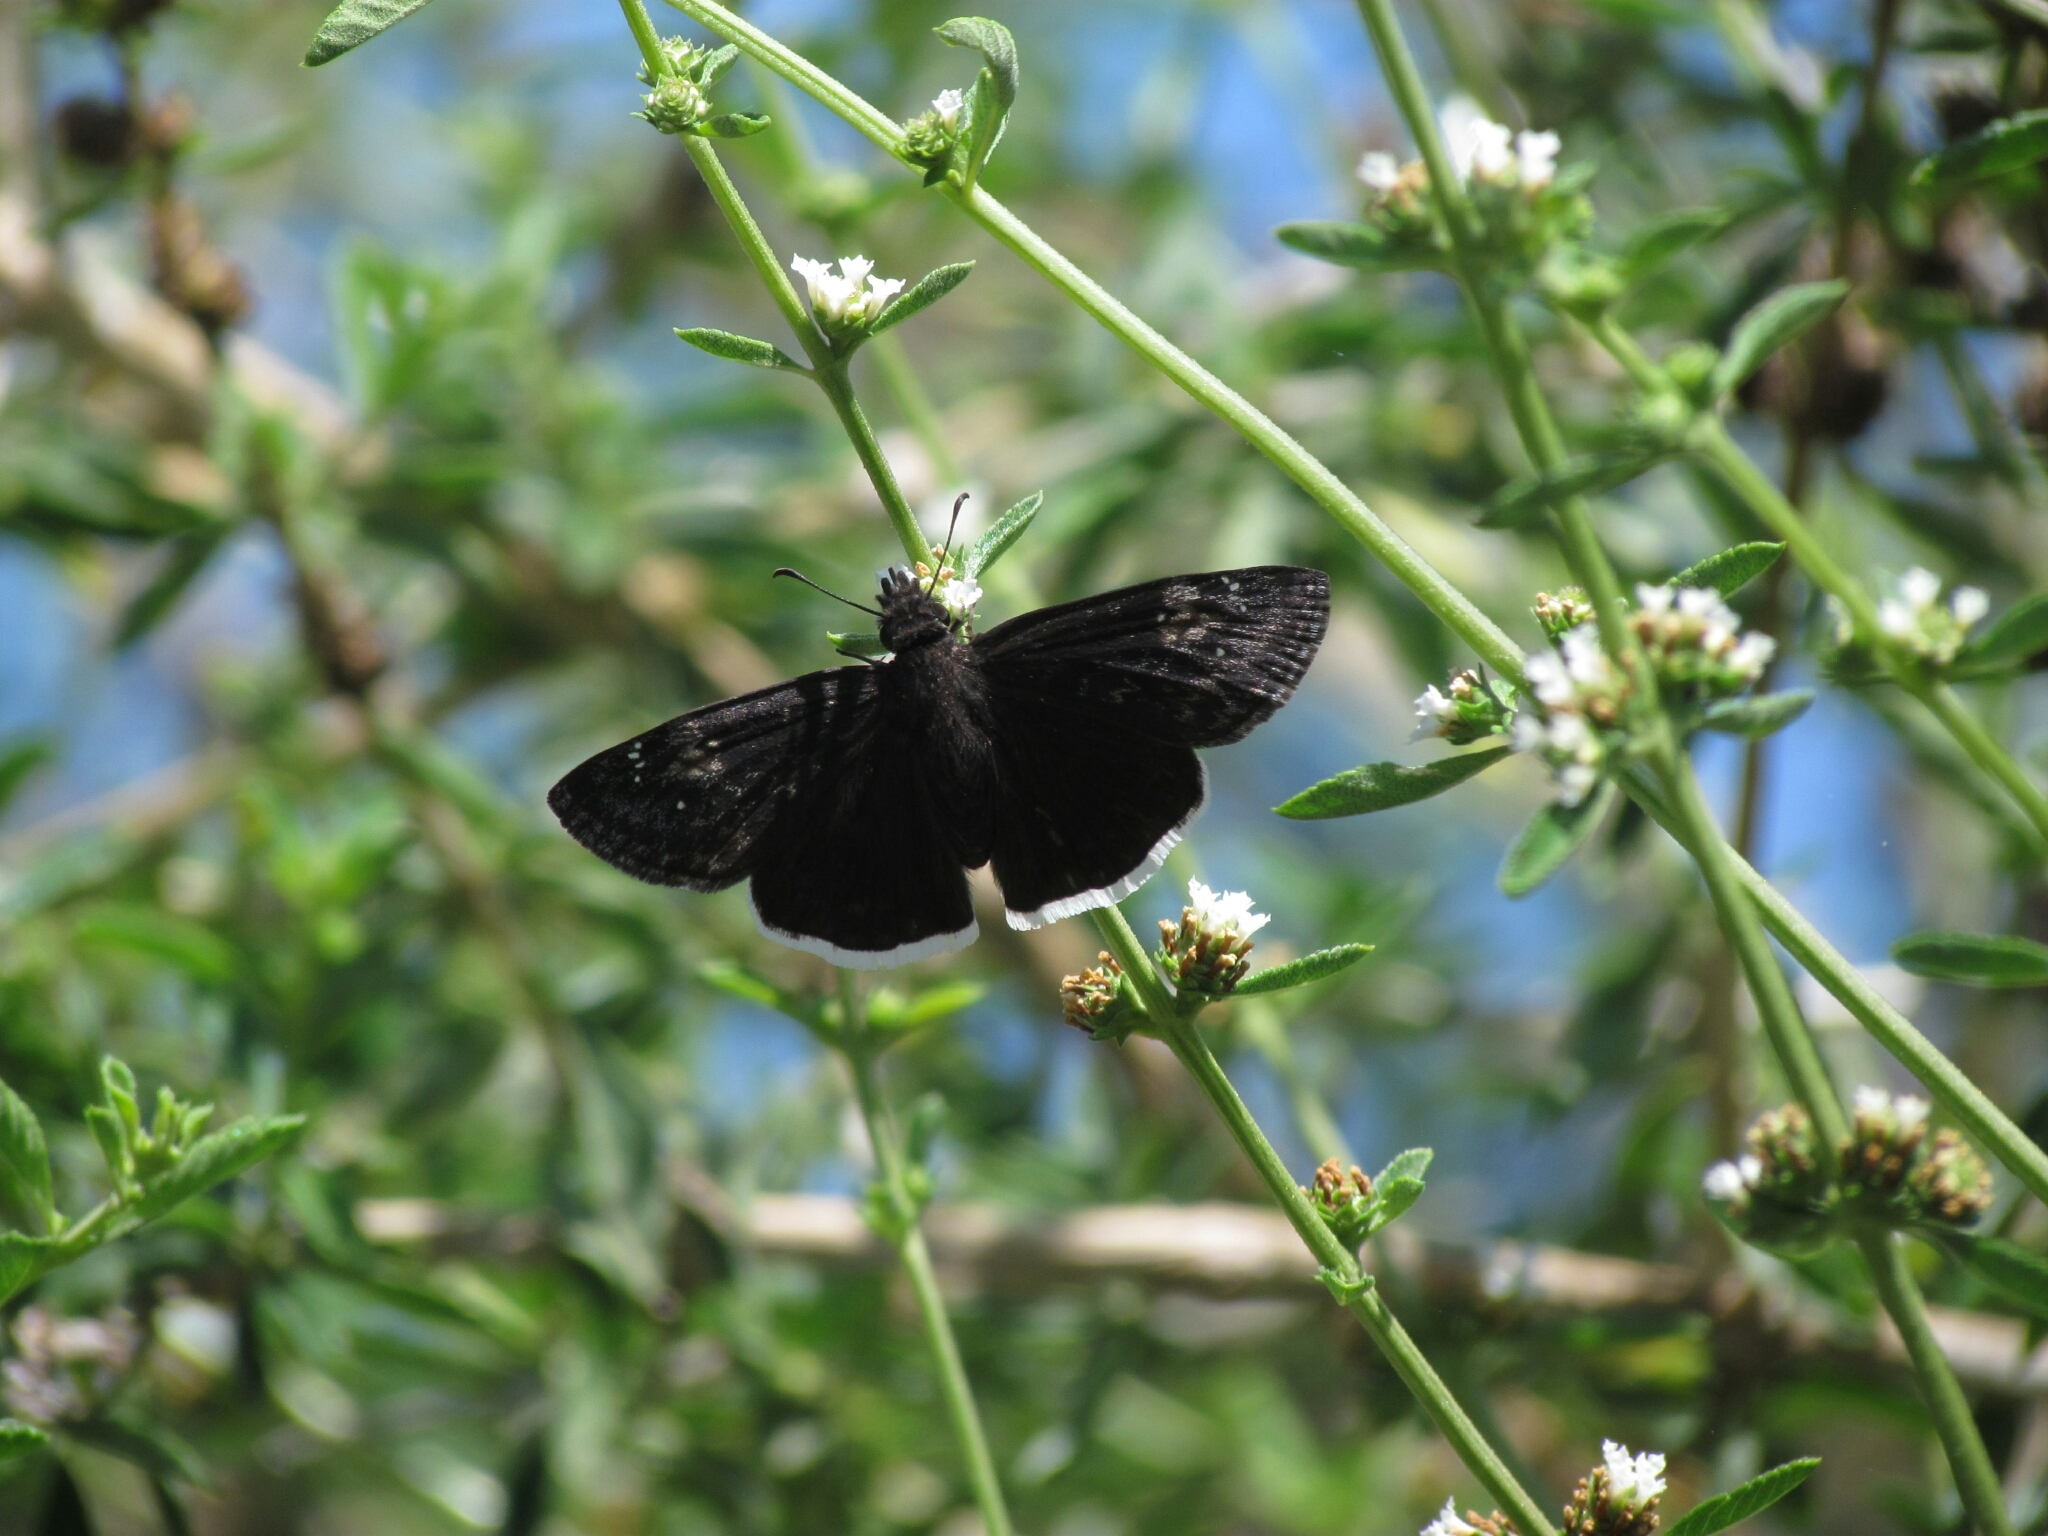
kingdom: Animalia
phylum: Arthropoda
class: Insecta
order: Lepidoptera
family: Hesperiidae
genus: Erynnis
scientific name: Erynnis funeralis
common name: Funereal duskywing
